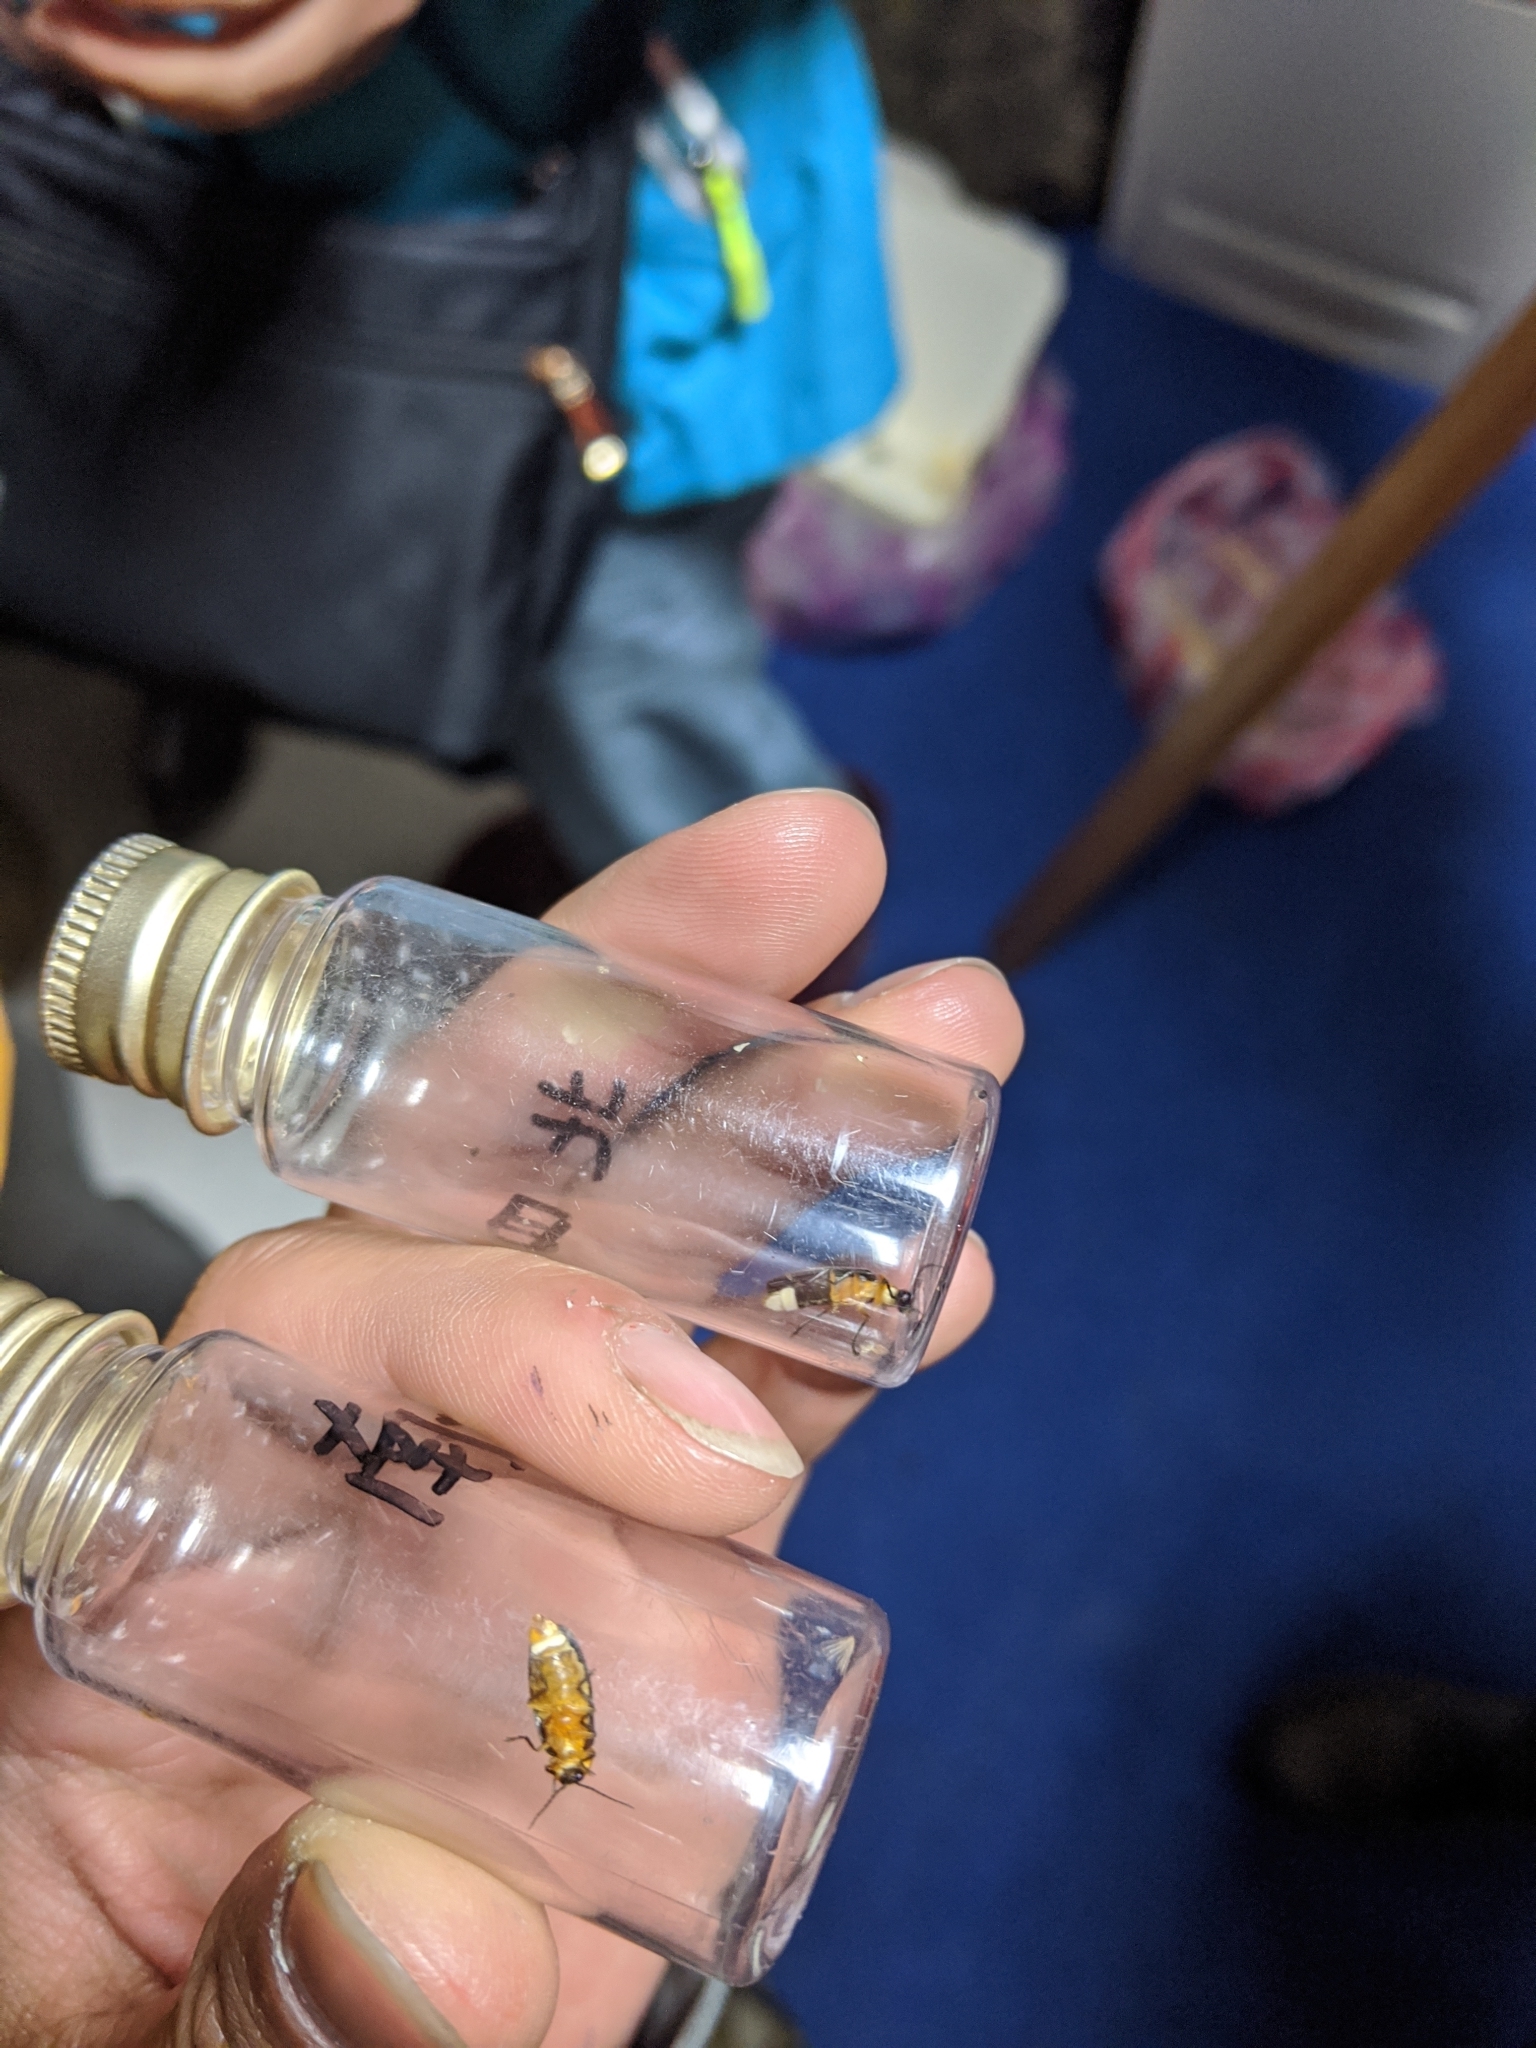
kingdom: Animalia
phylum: Arthropoda
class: Insecta
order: Coleoptera
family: Lampyridae
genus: Abscondita
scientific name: Abscondita cerata
